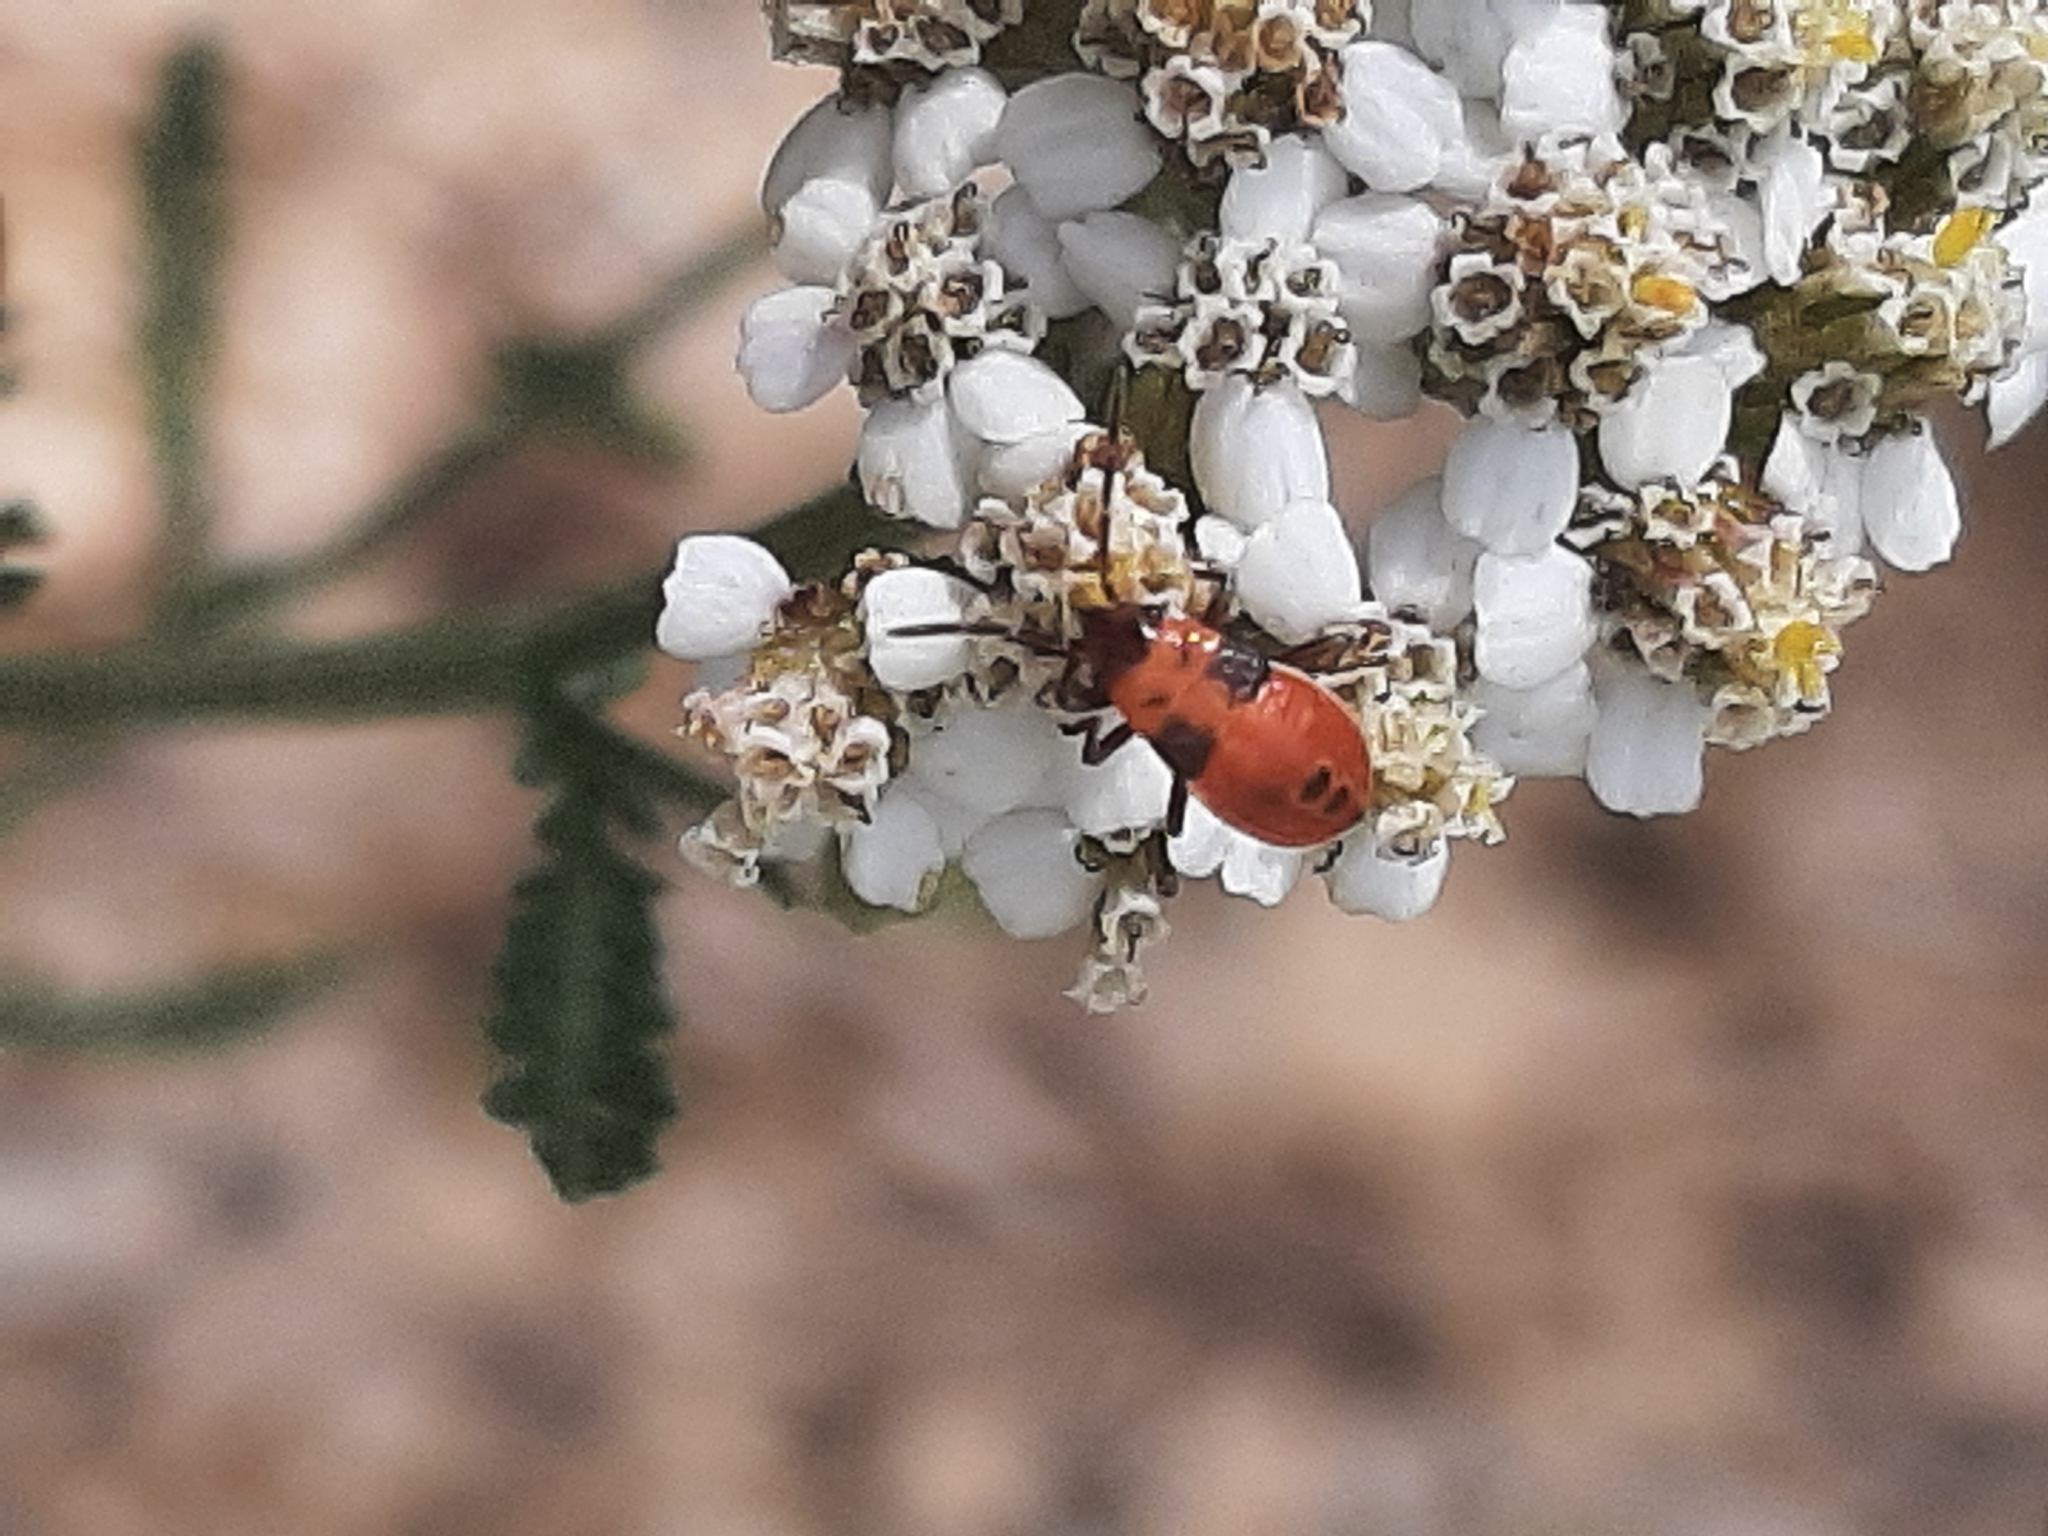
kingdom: Animalia
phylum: Arthropoda
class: Insecta
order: Hemiptera
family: Lygaeidae
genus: Lygaeus
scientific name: Lygaeus turcicus
